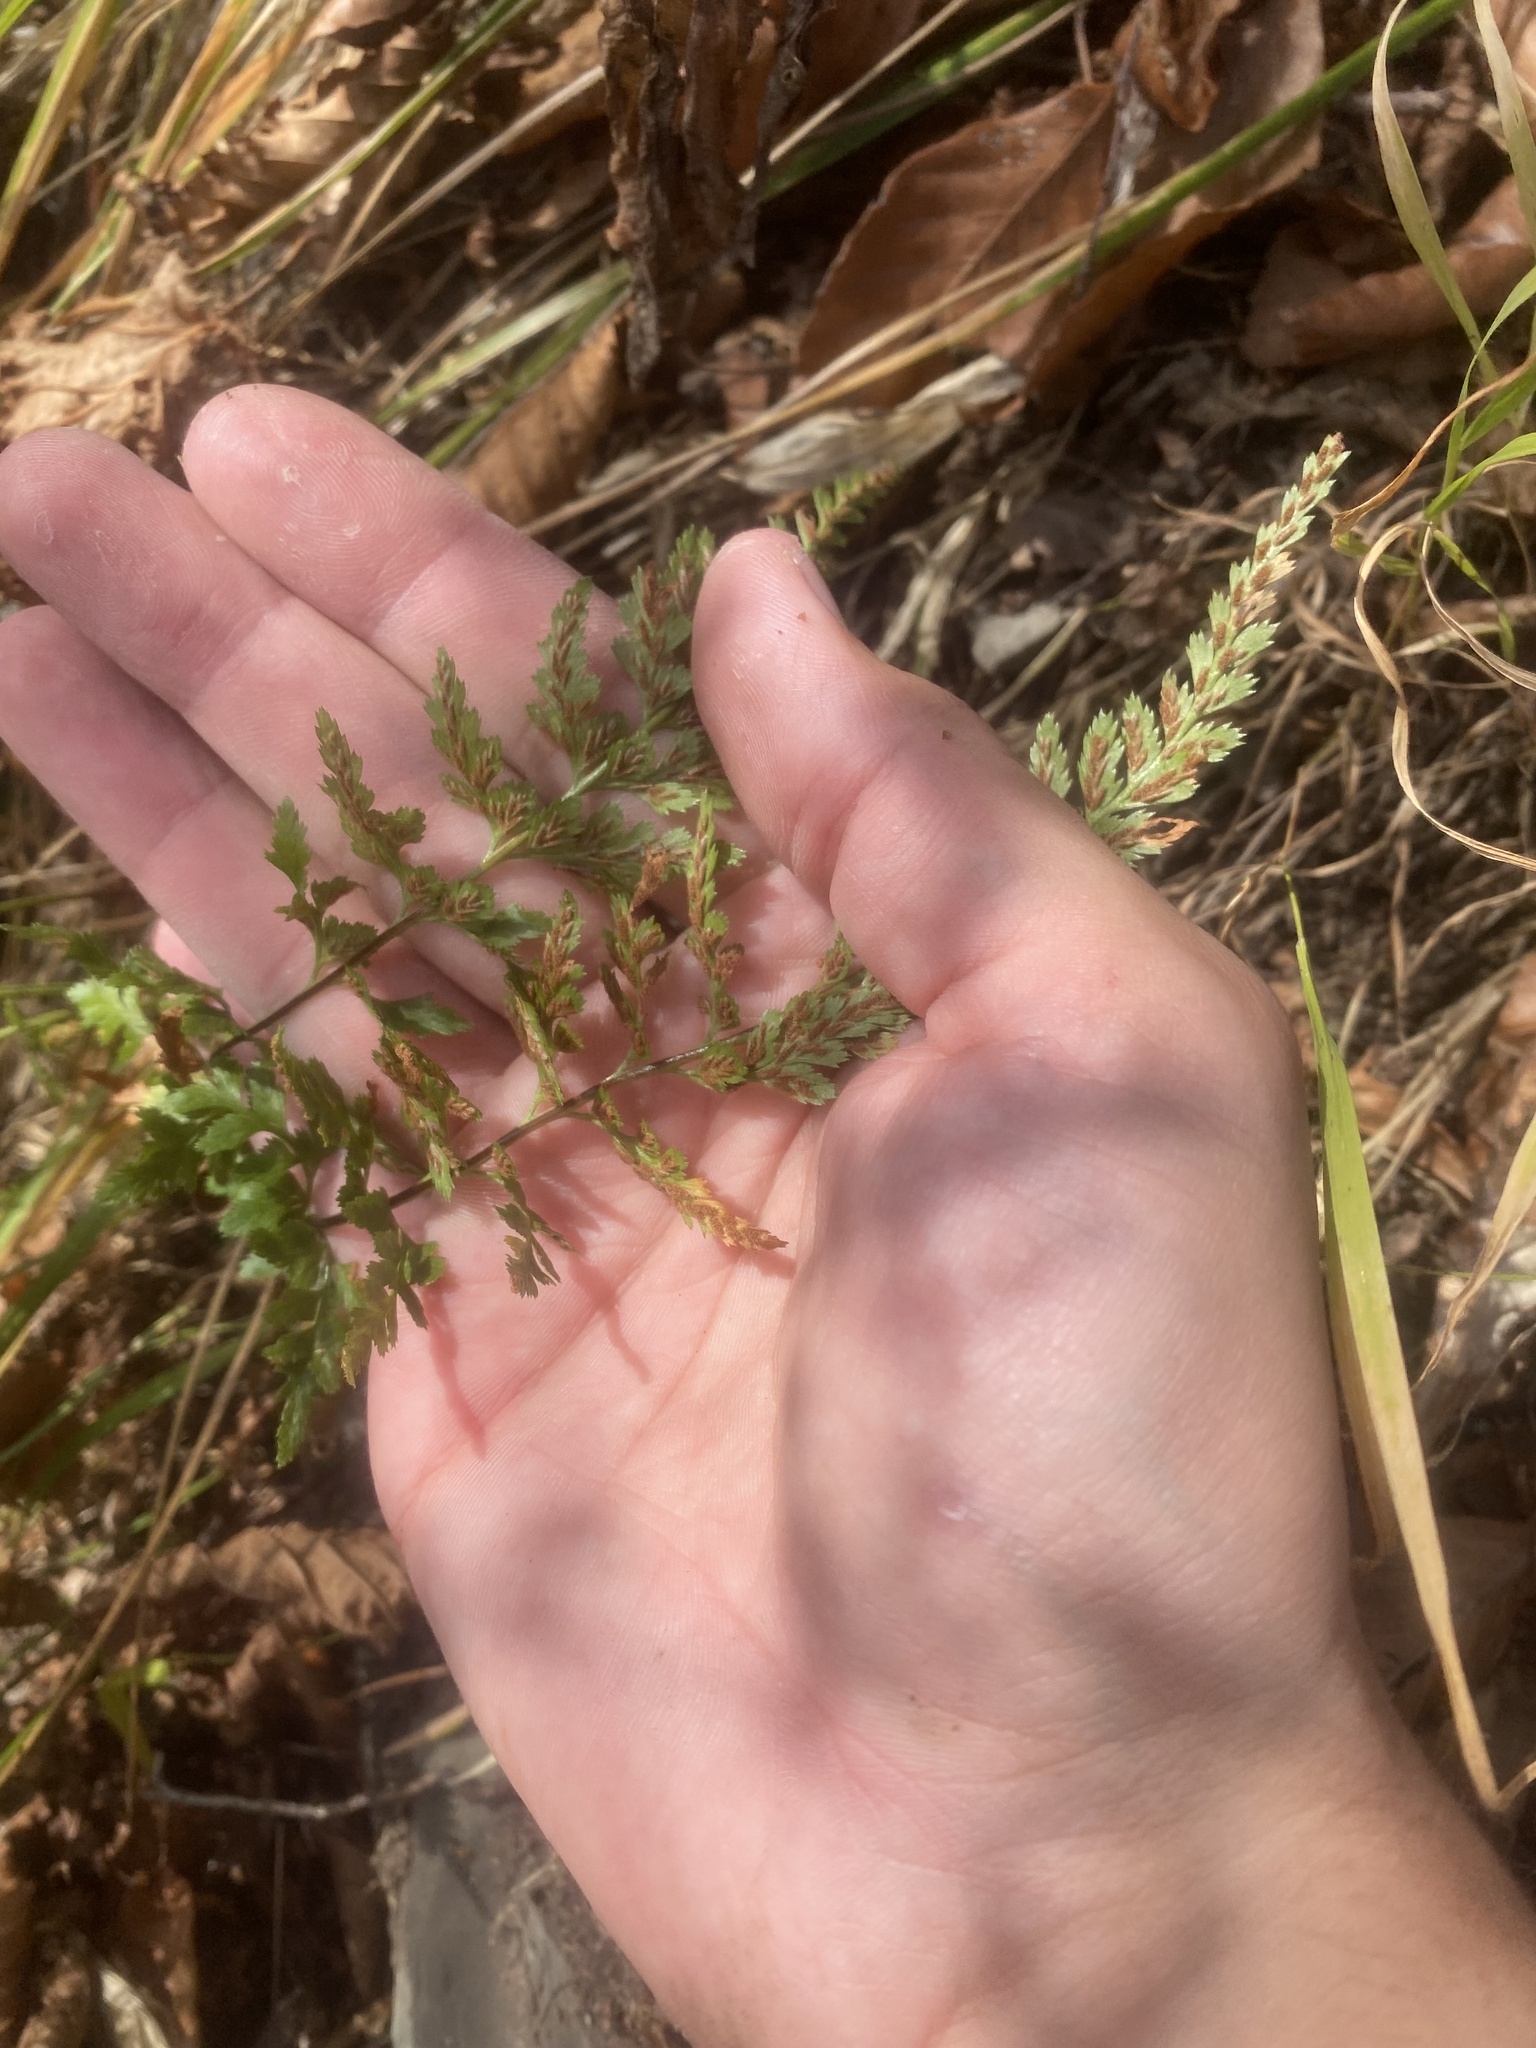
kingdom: Plantae
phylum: Tracheophyta
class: Polypodiopsida
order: Polypodiales
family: Aspleniaceae
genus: Asplenium
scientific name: Asplenium adiantum-nigrum
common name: Black spleenwort
